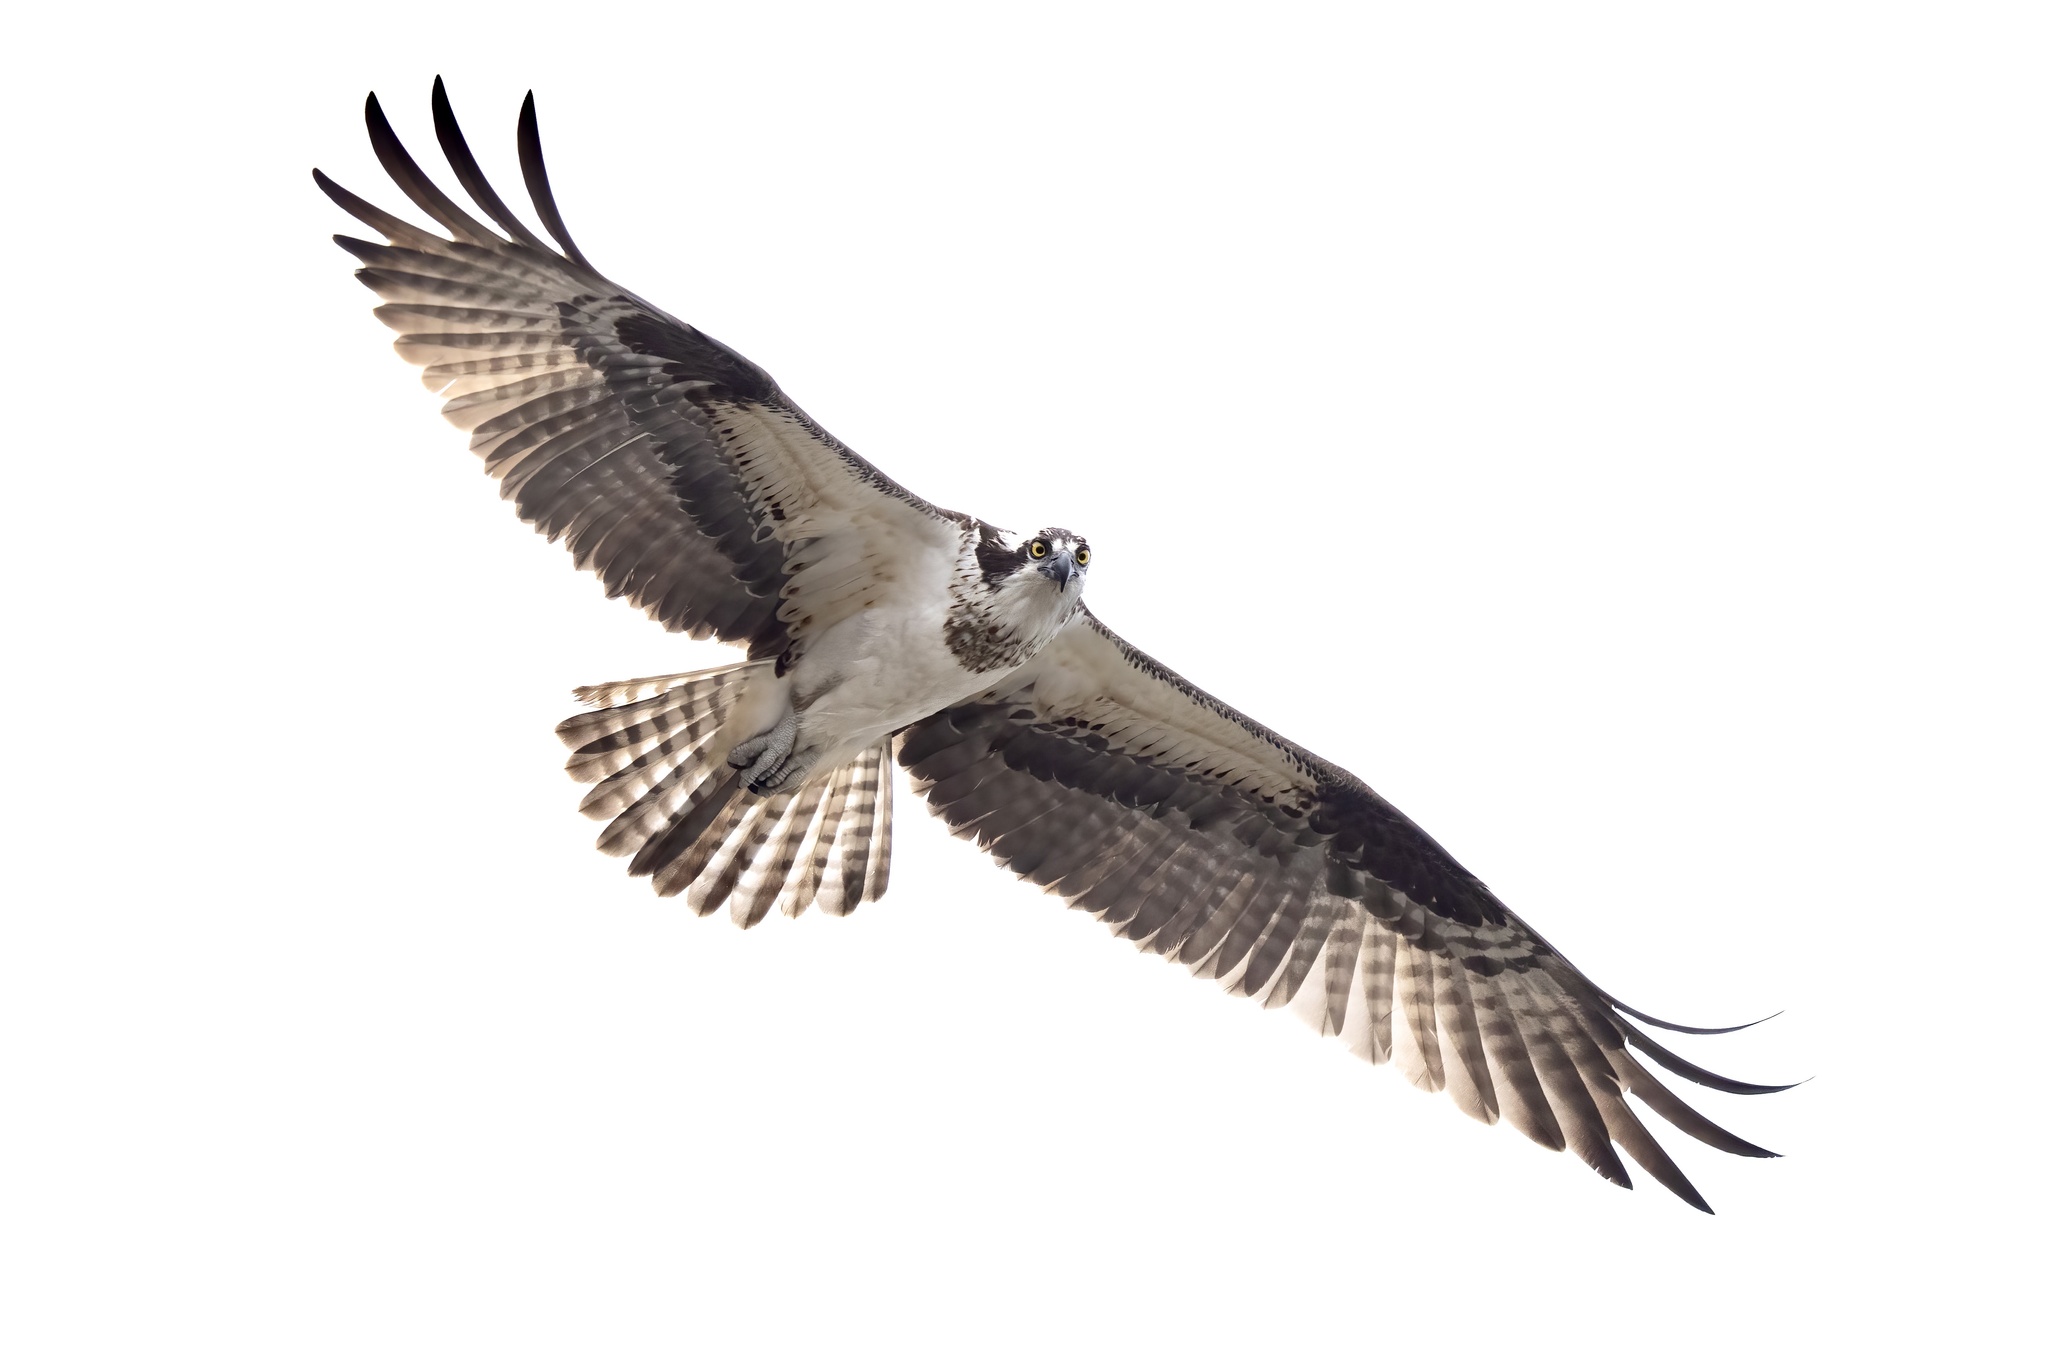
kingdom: Animalia
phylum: Chordata
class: Aves
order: Accipitriformes
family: Pandionidae
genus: Pandion
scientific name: Pandion haliaetus
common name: Osprey
